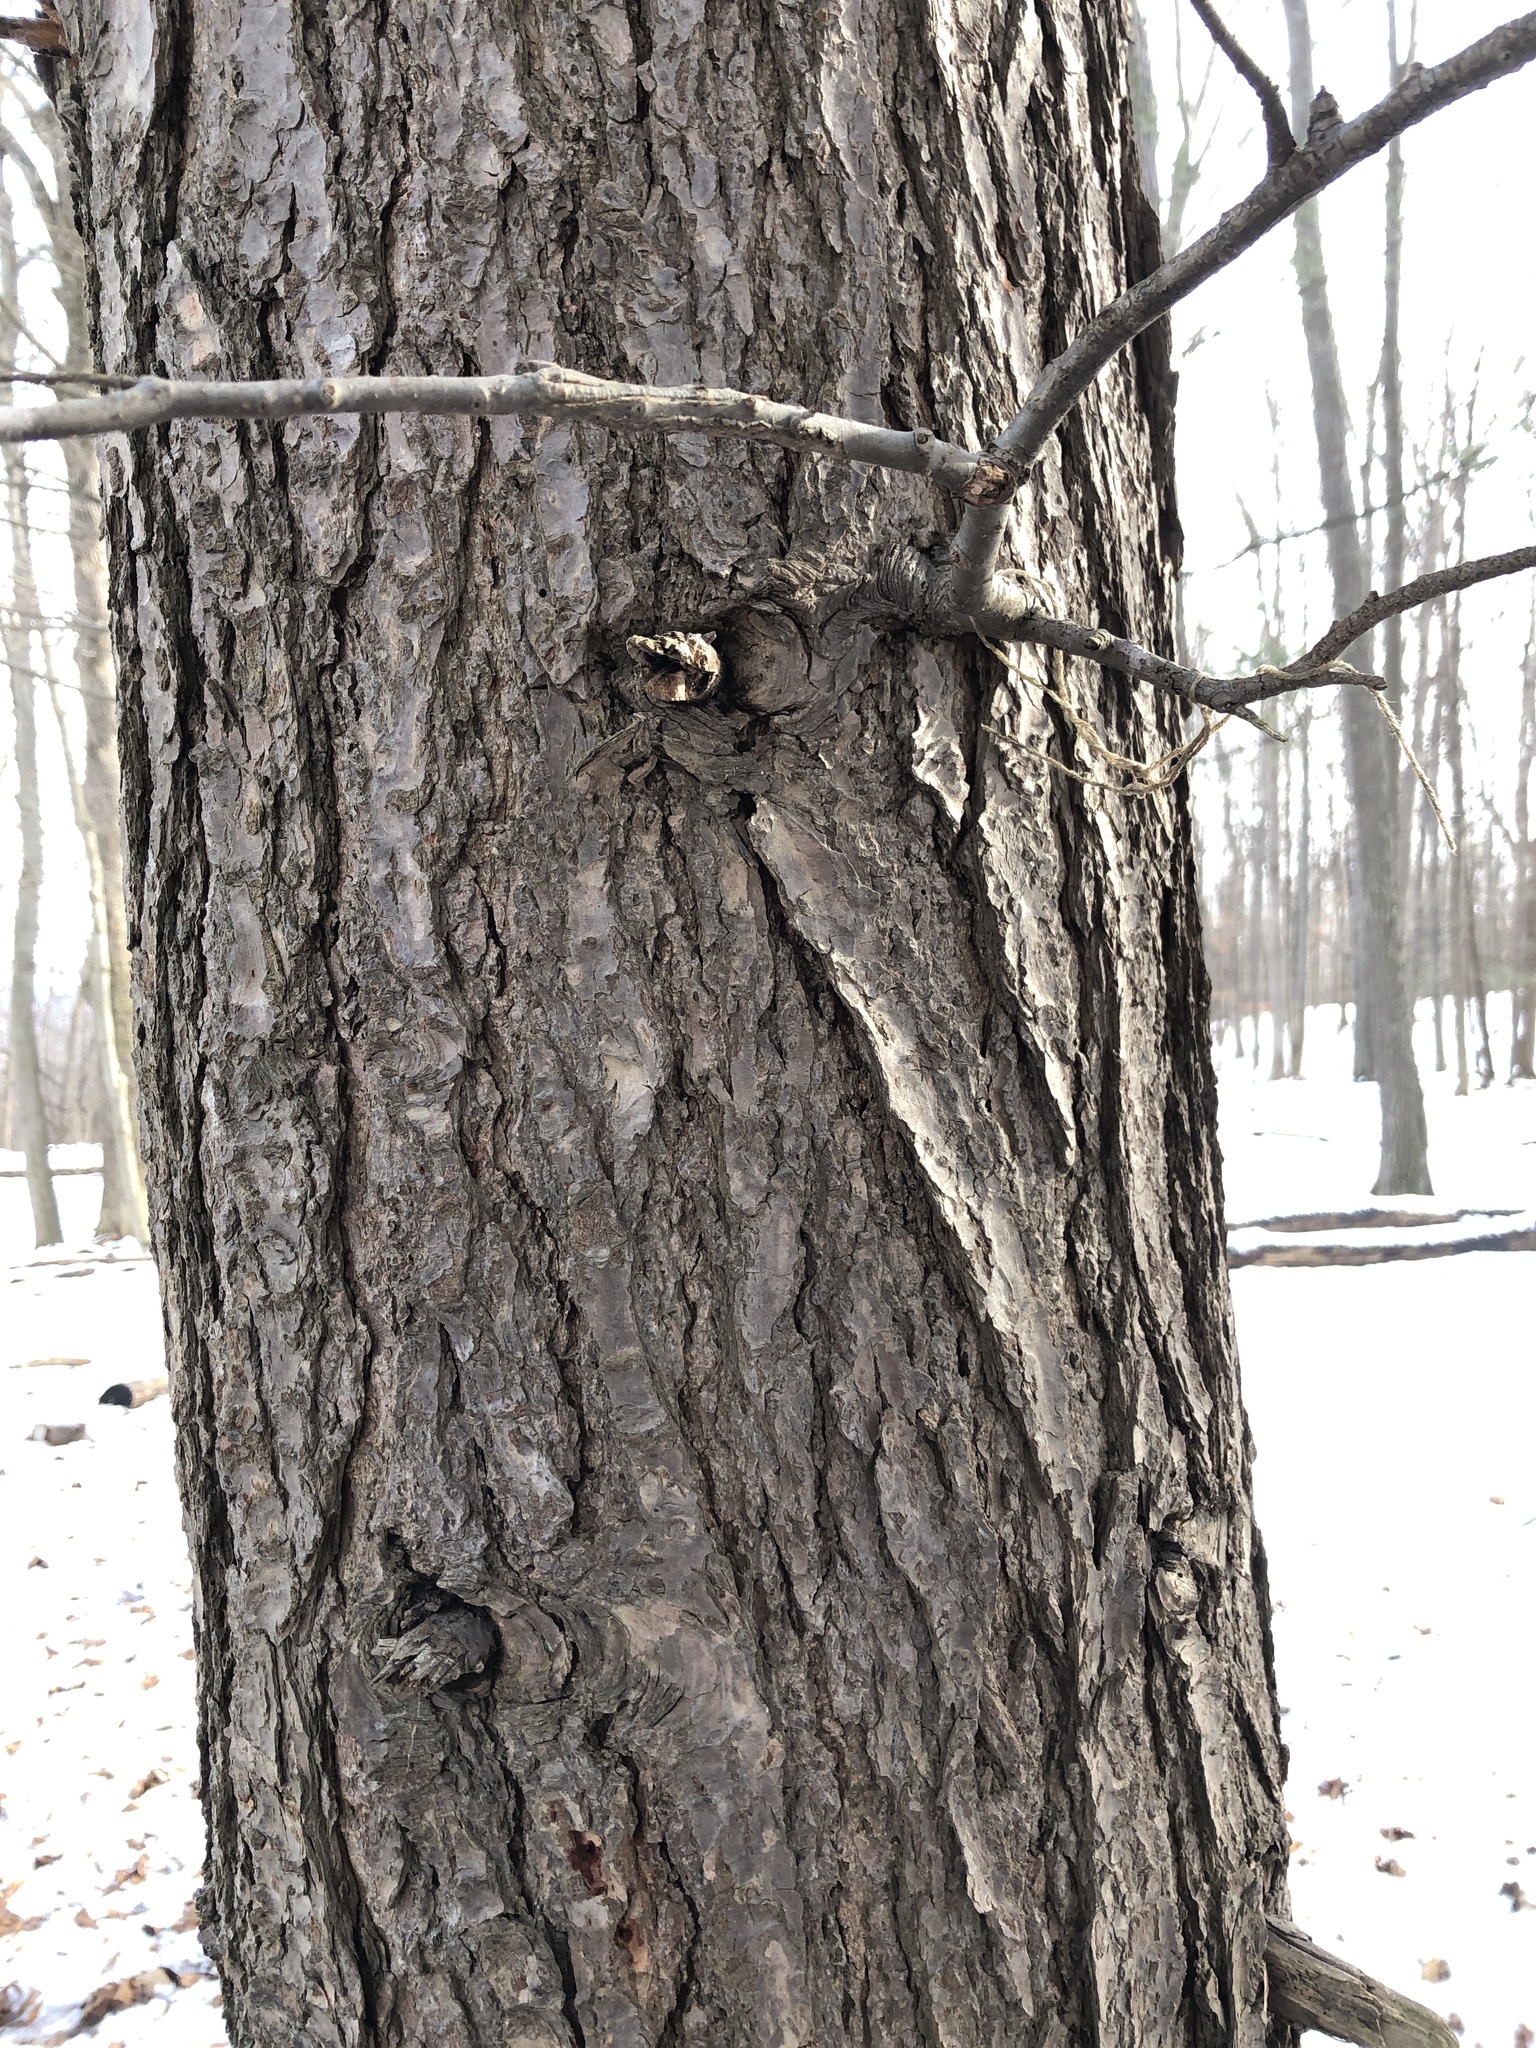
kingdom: Plantae
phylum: Tracheophyta
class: Pinopsida
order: Pinales
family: Pinaceae
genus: Tsuga
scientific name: Tsuga canadensis
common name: Eastern hemlock
